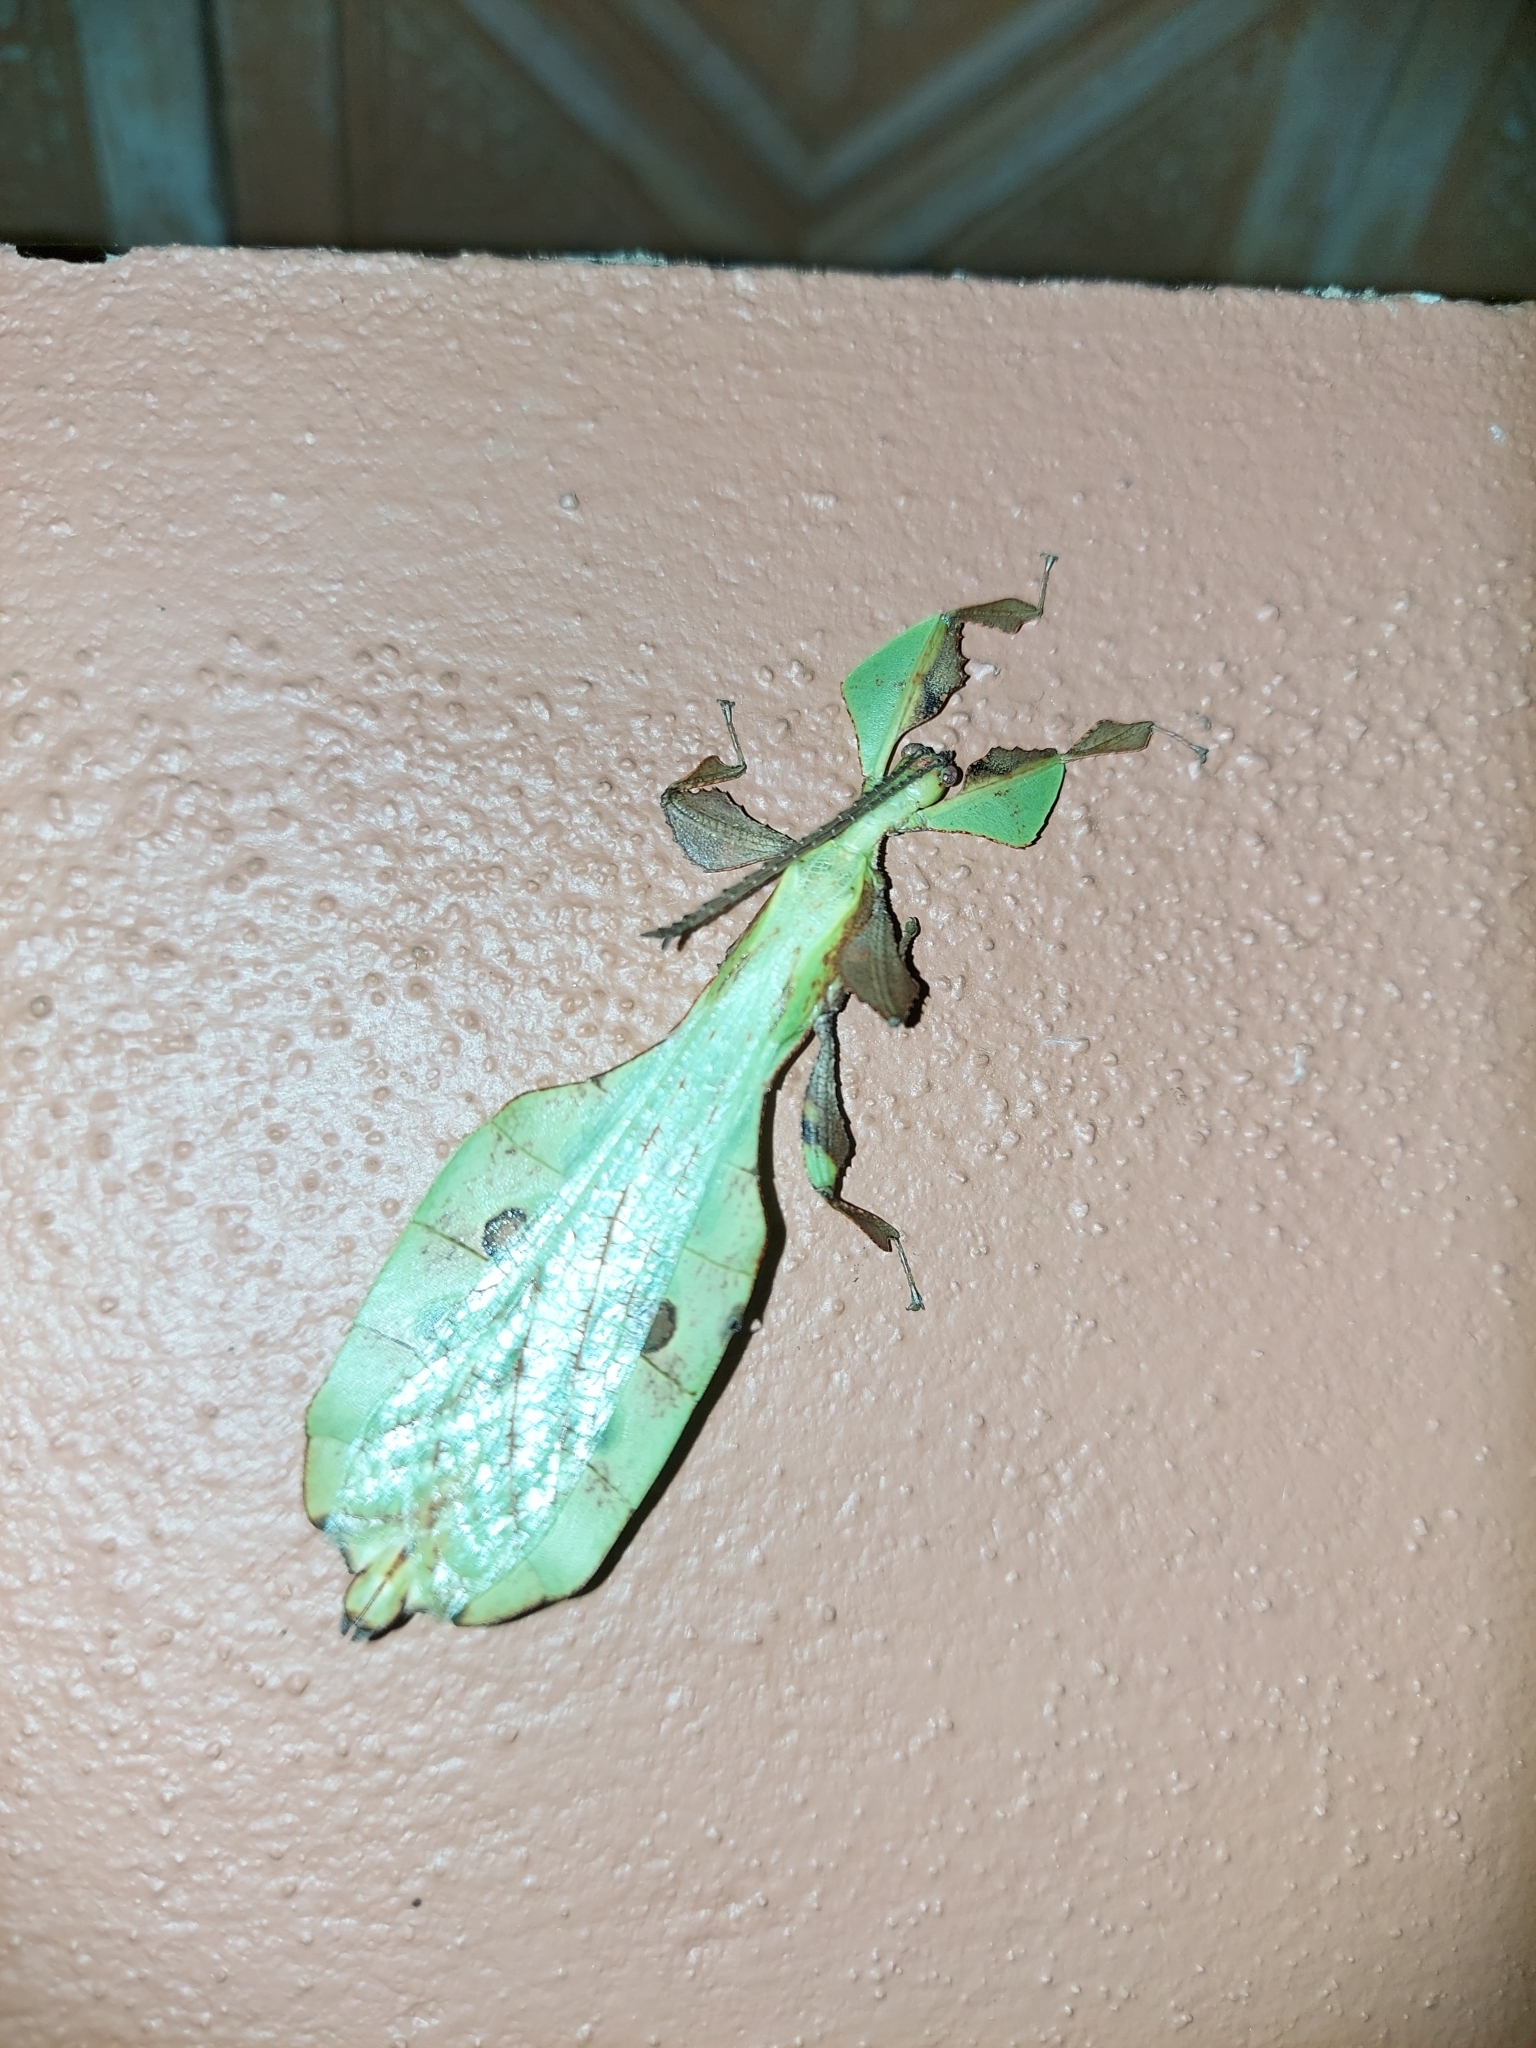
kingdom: Animalia
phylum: Arthropoda
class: Insecta
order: Phasmida
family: Phylliidae
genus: Pulchriphyllium
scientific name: Pulchriphyllium anangu
